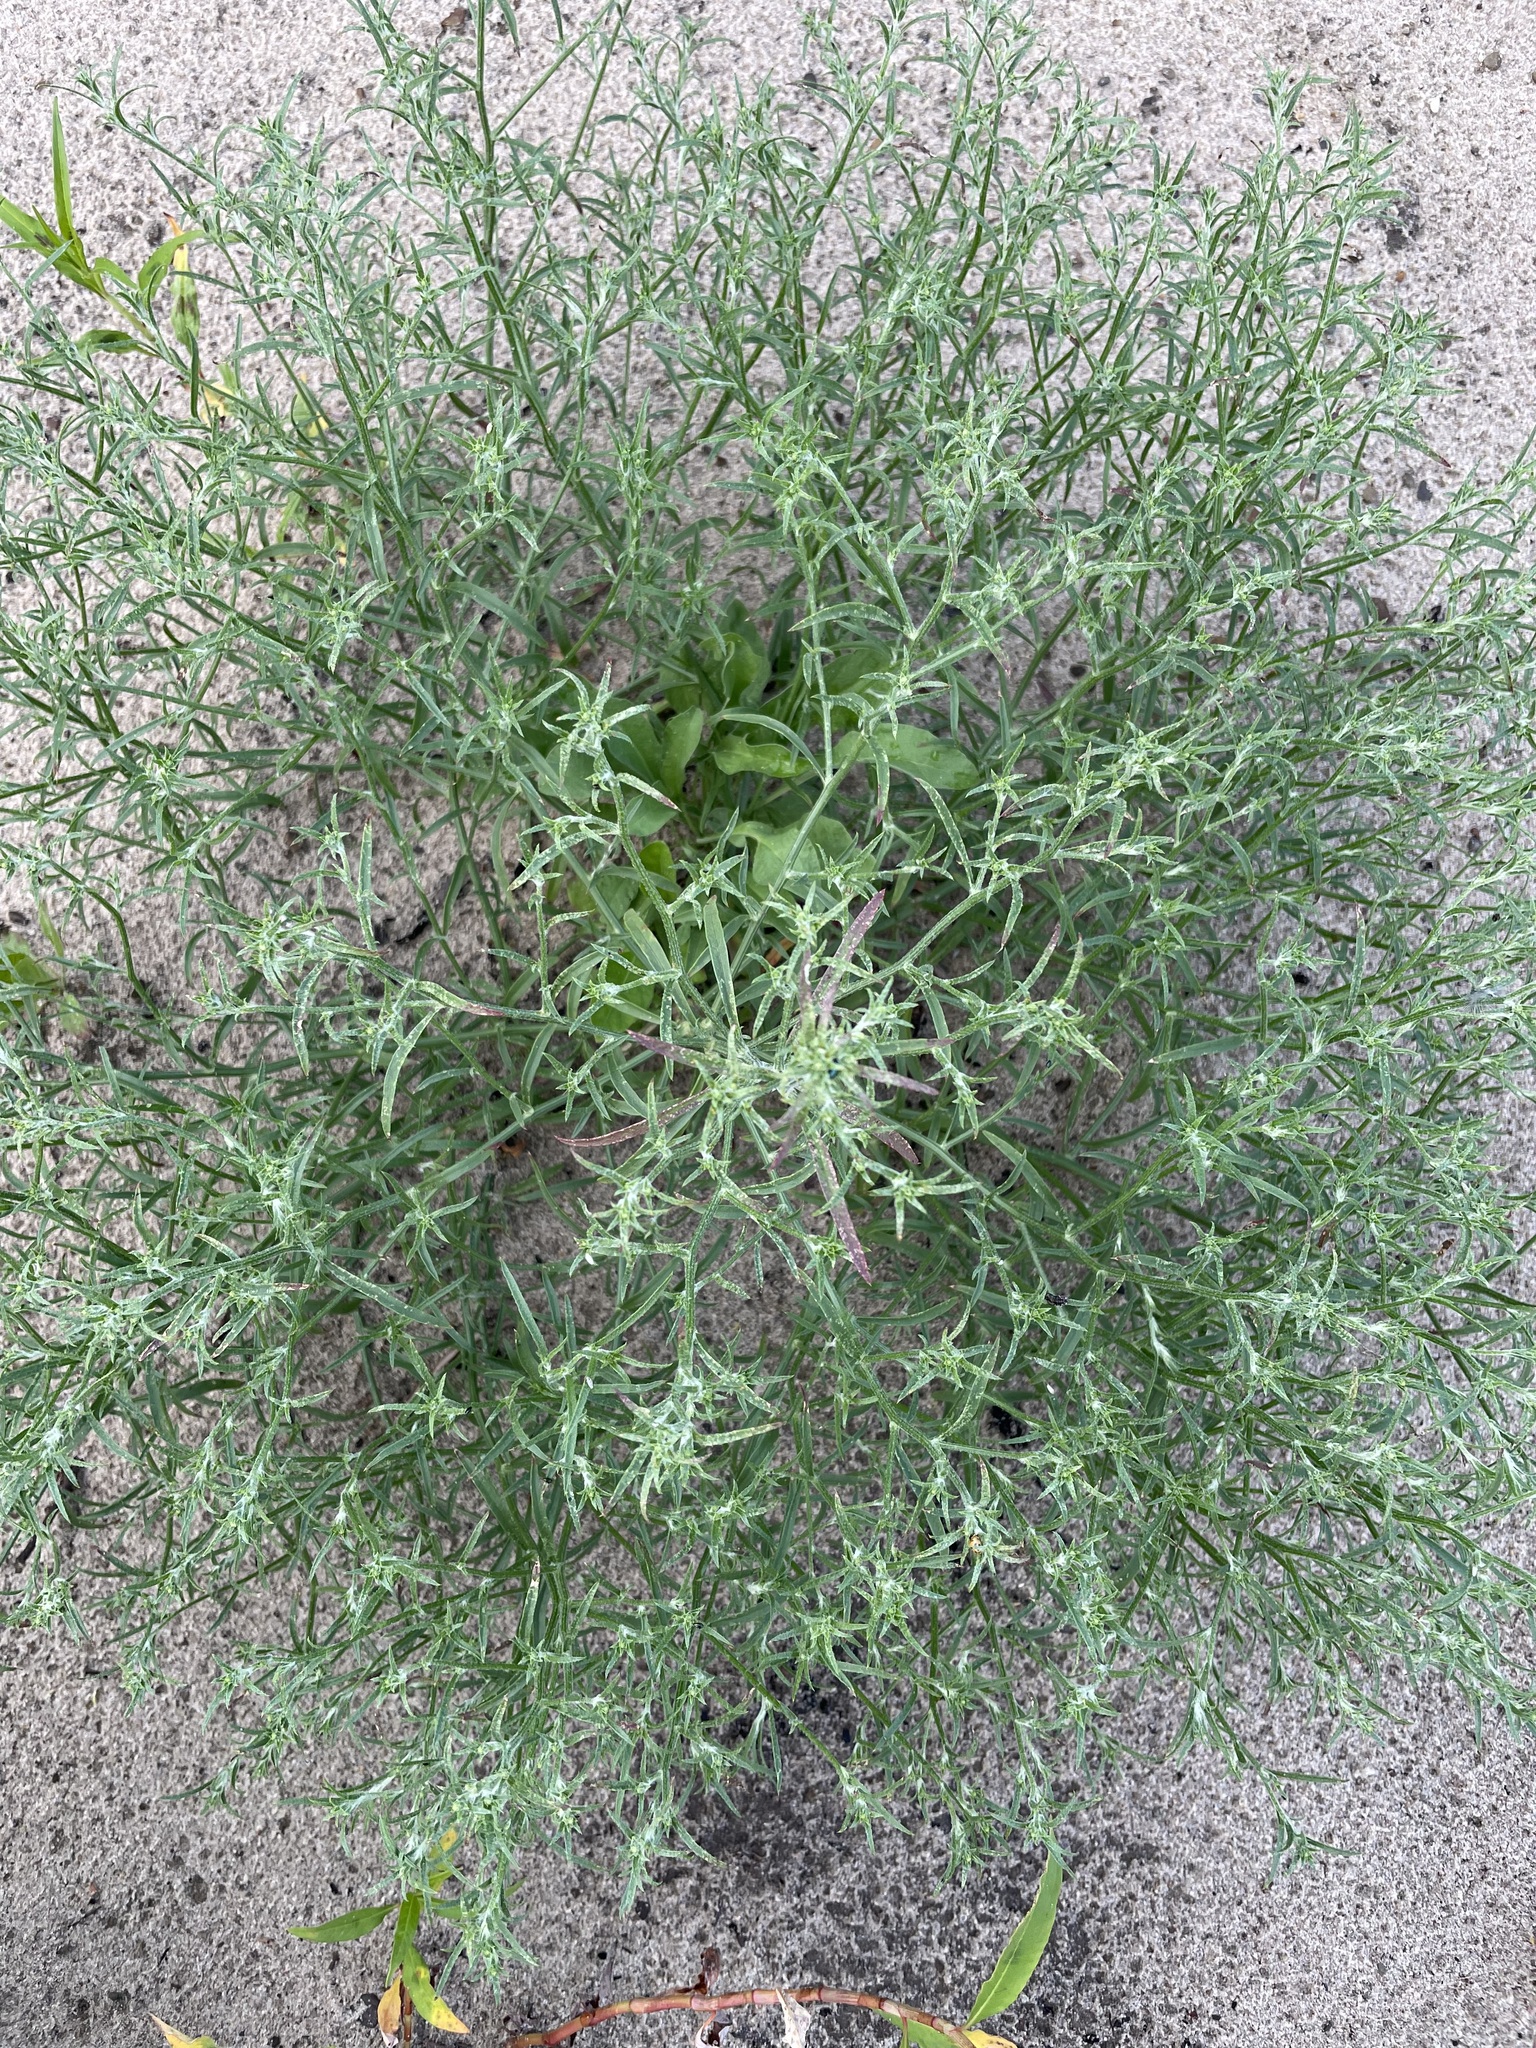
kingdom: Plantae
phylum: Tracheophyta
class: Magnoliopsida
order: Caryophyllales
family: Amaranthaceae
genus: Corispermum
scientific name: Corispermum hyssopifolium
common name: Bugseed
